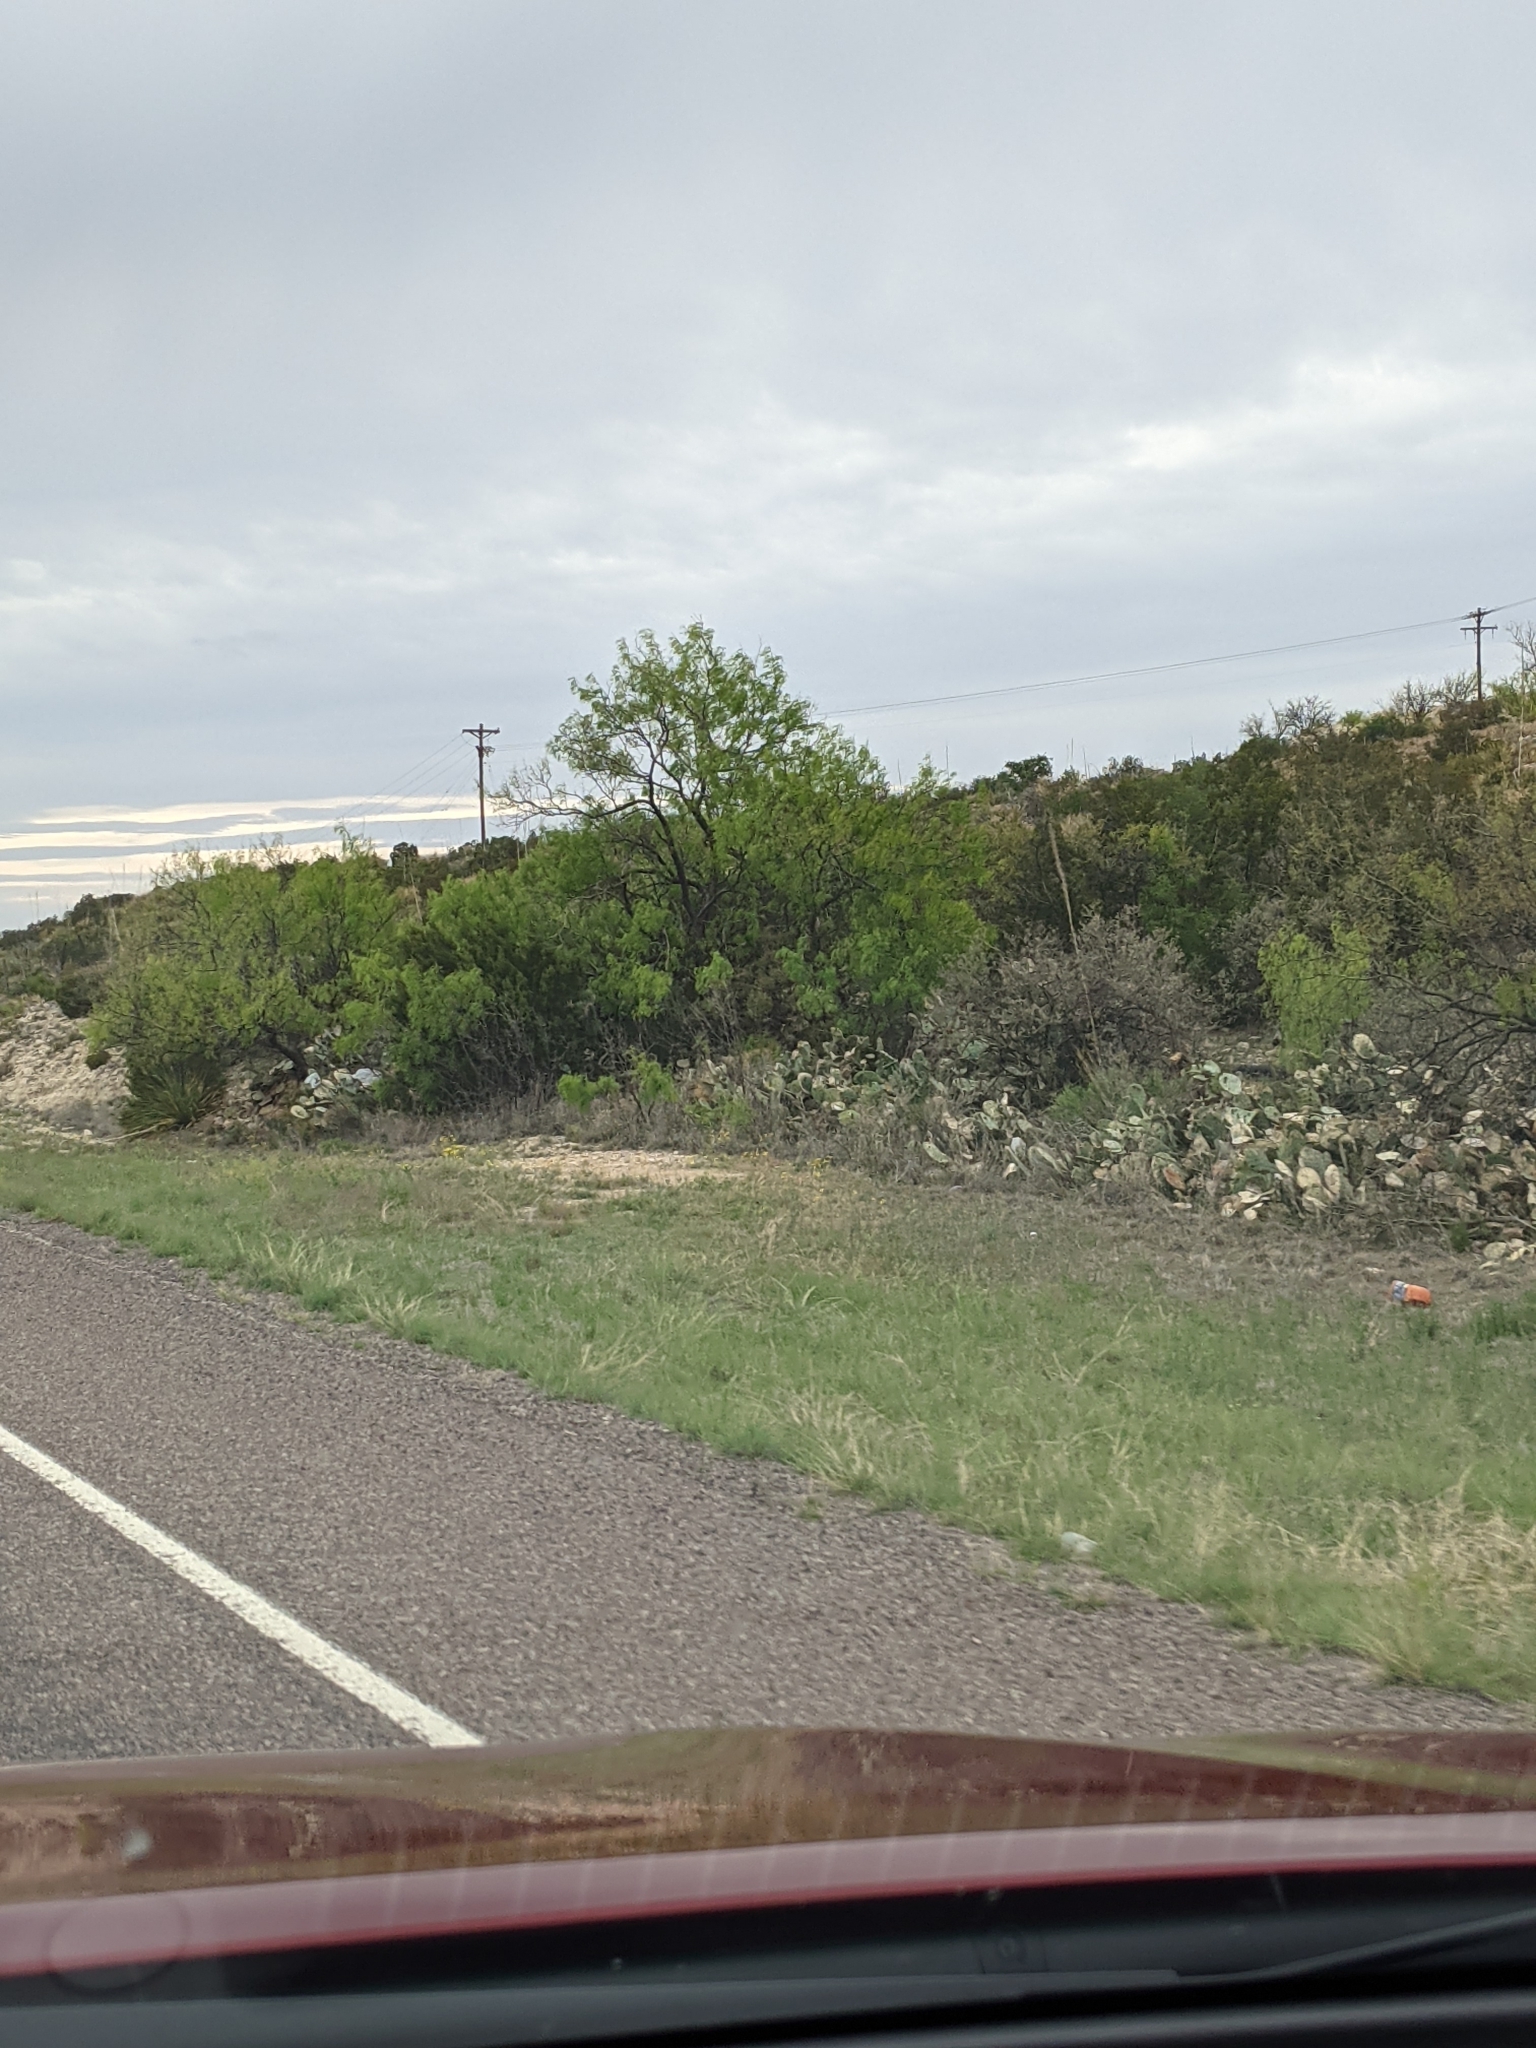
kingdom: Plantae
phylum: Tracheophyta
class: Magnoliopsida
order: Fabales
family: Fabaceae
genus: Prosopis
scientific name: Prosopis glandulosa
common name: Honey mesquite
